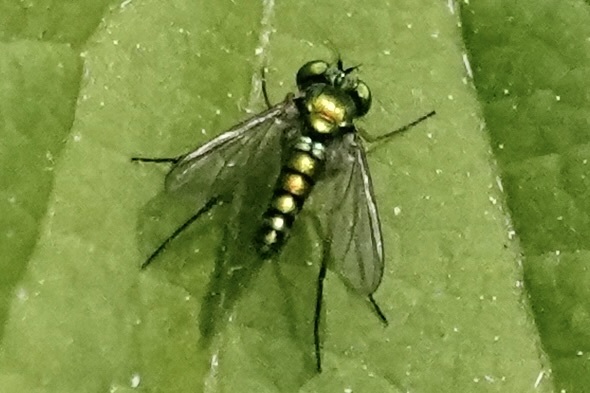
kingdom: Animalia
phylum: Arthropoda
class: Insecta
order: Diptera
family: Dolichopodidae
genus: Condylostylus
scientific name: Condylostylus caudatus
